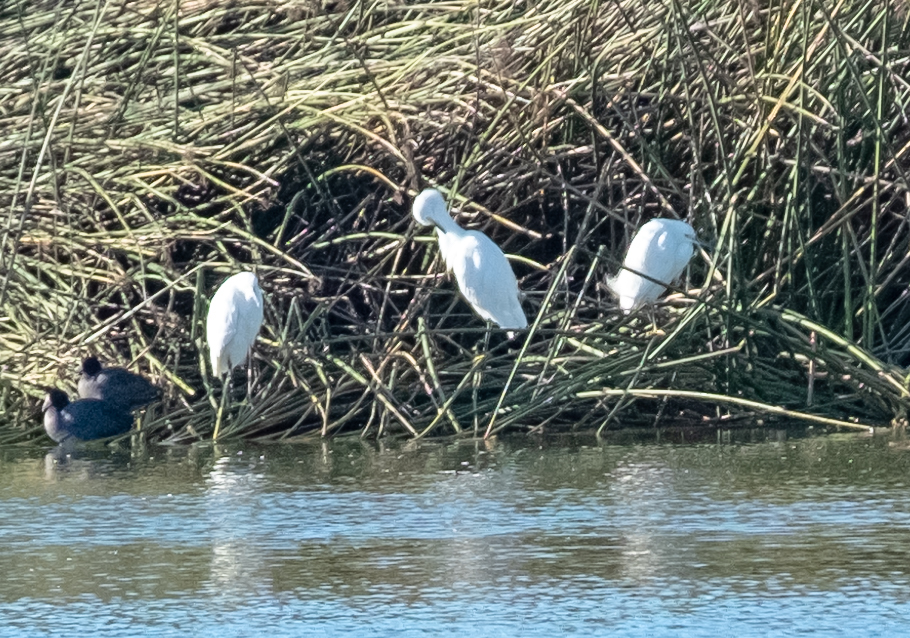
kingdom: Animalia
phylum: Chordata
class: Aves
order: Pelecaniformes
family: Ardeidae
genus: Egretta
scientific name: Egretta thula
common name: Snowy egret
